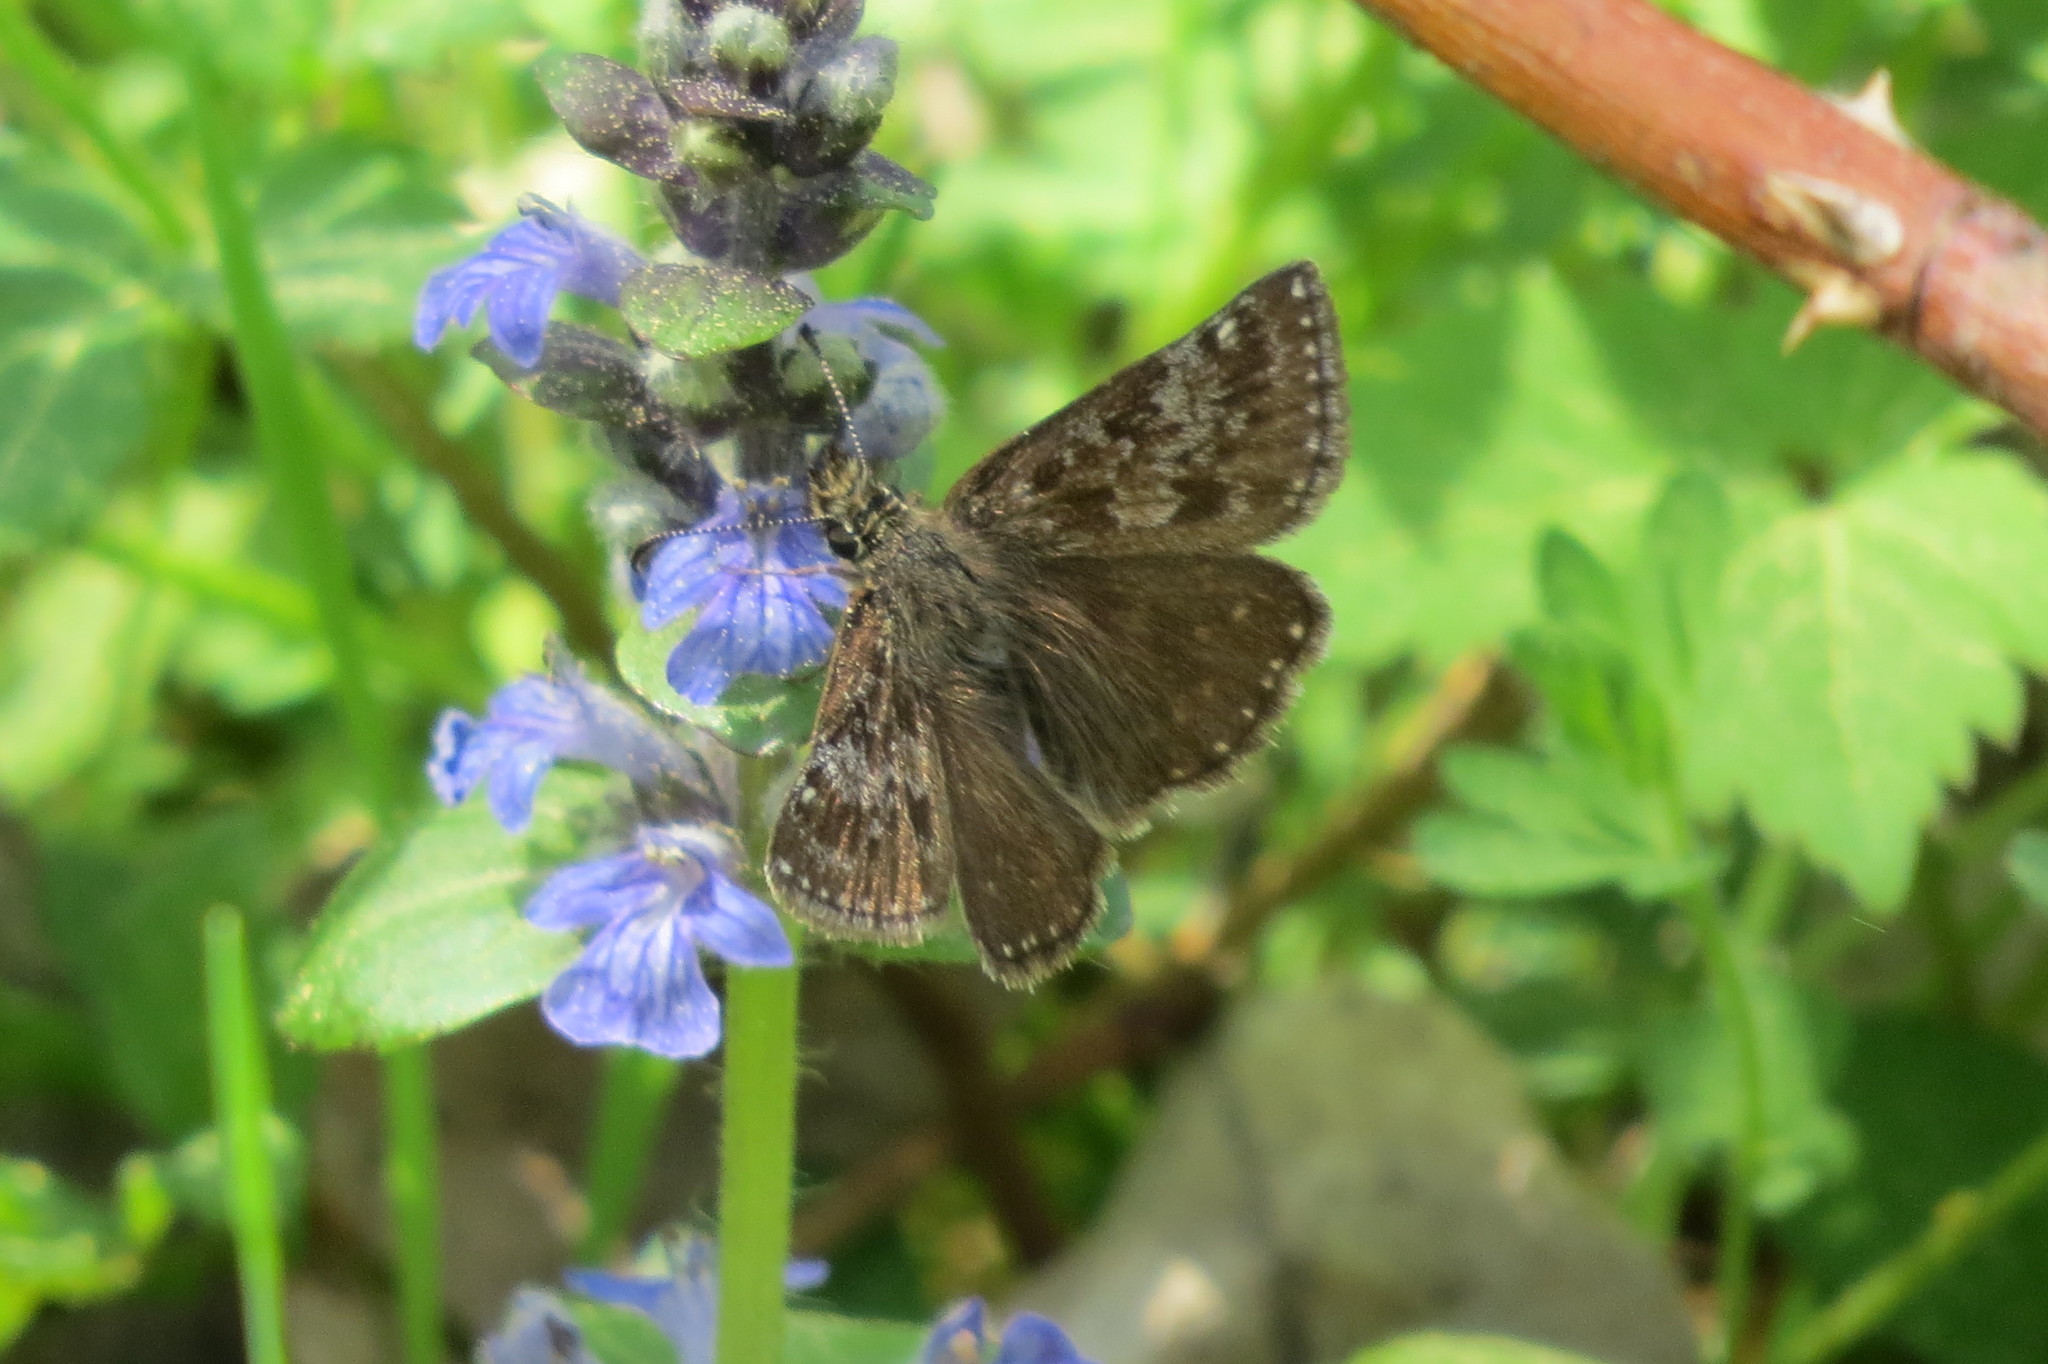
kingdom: Animalia
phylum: Arthropoda
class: Insecta
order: Lepidoptera
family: Hesperiidae
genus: Erynnis
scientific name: Erynnis tages
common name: Dingy skipper
